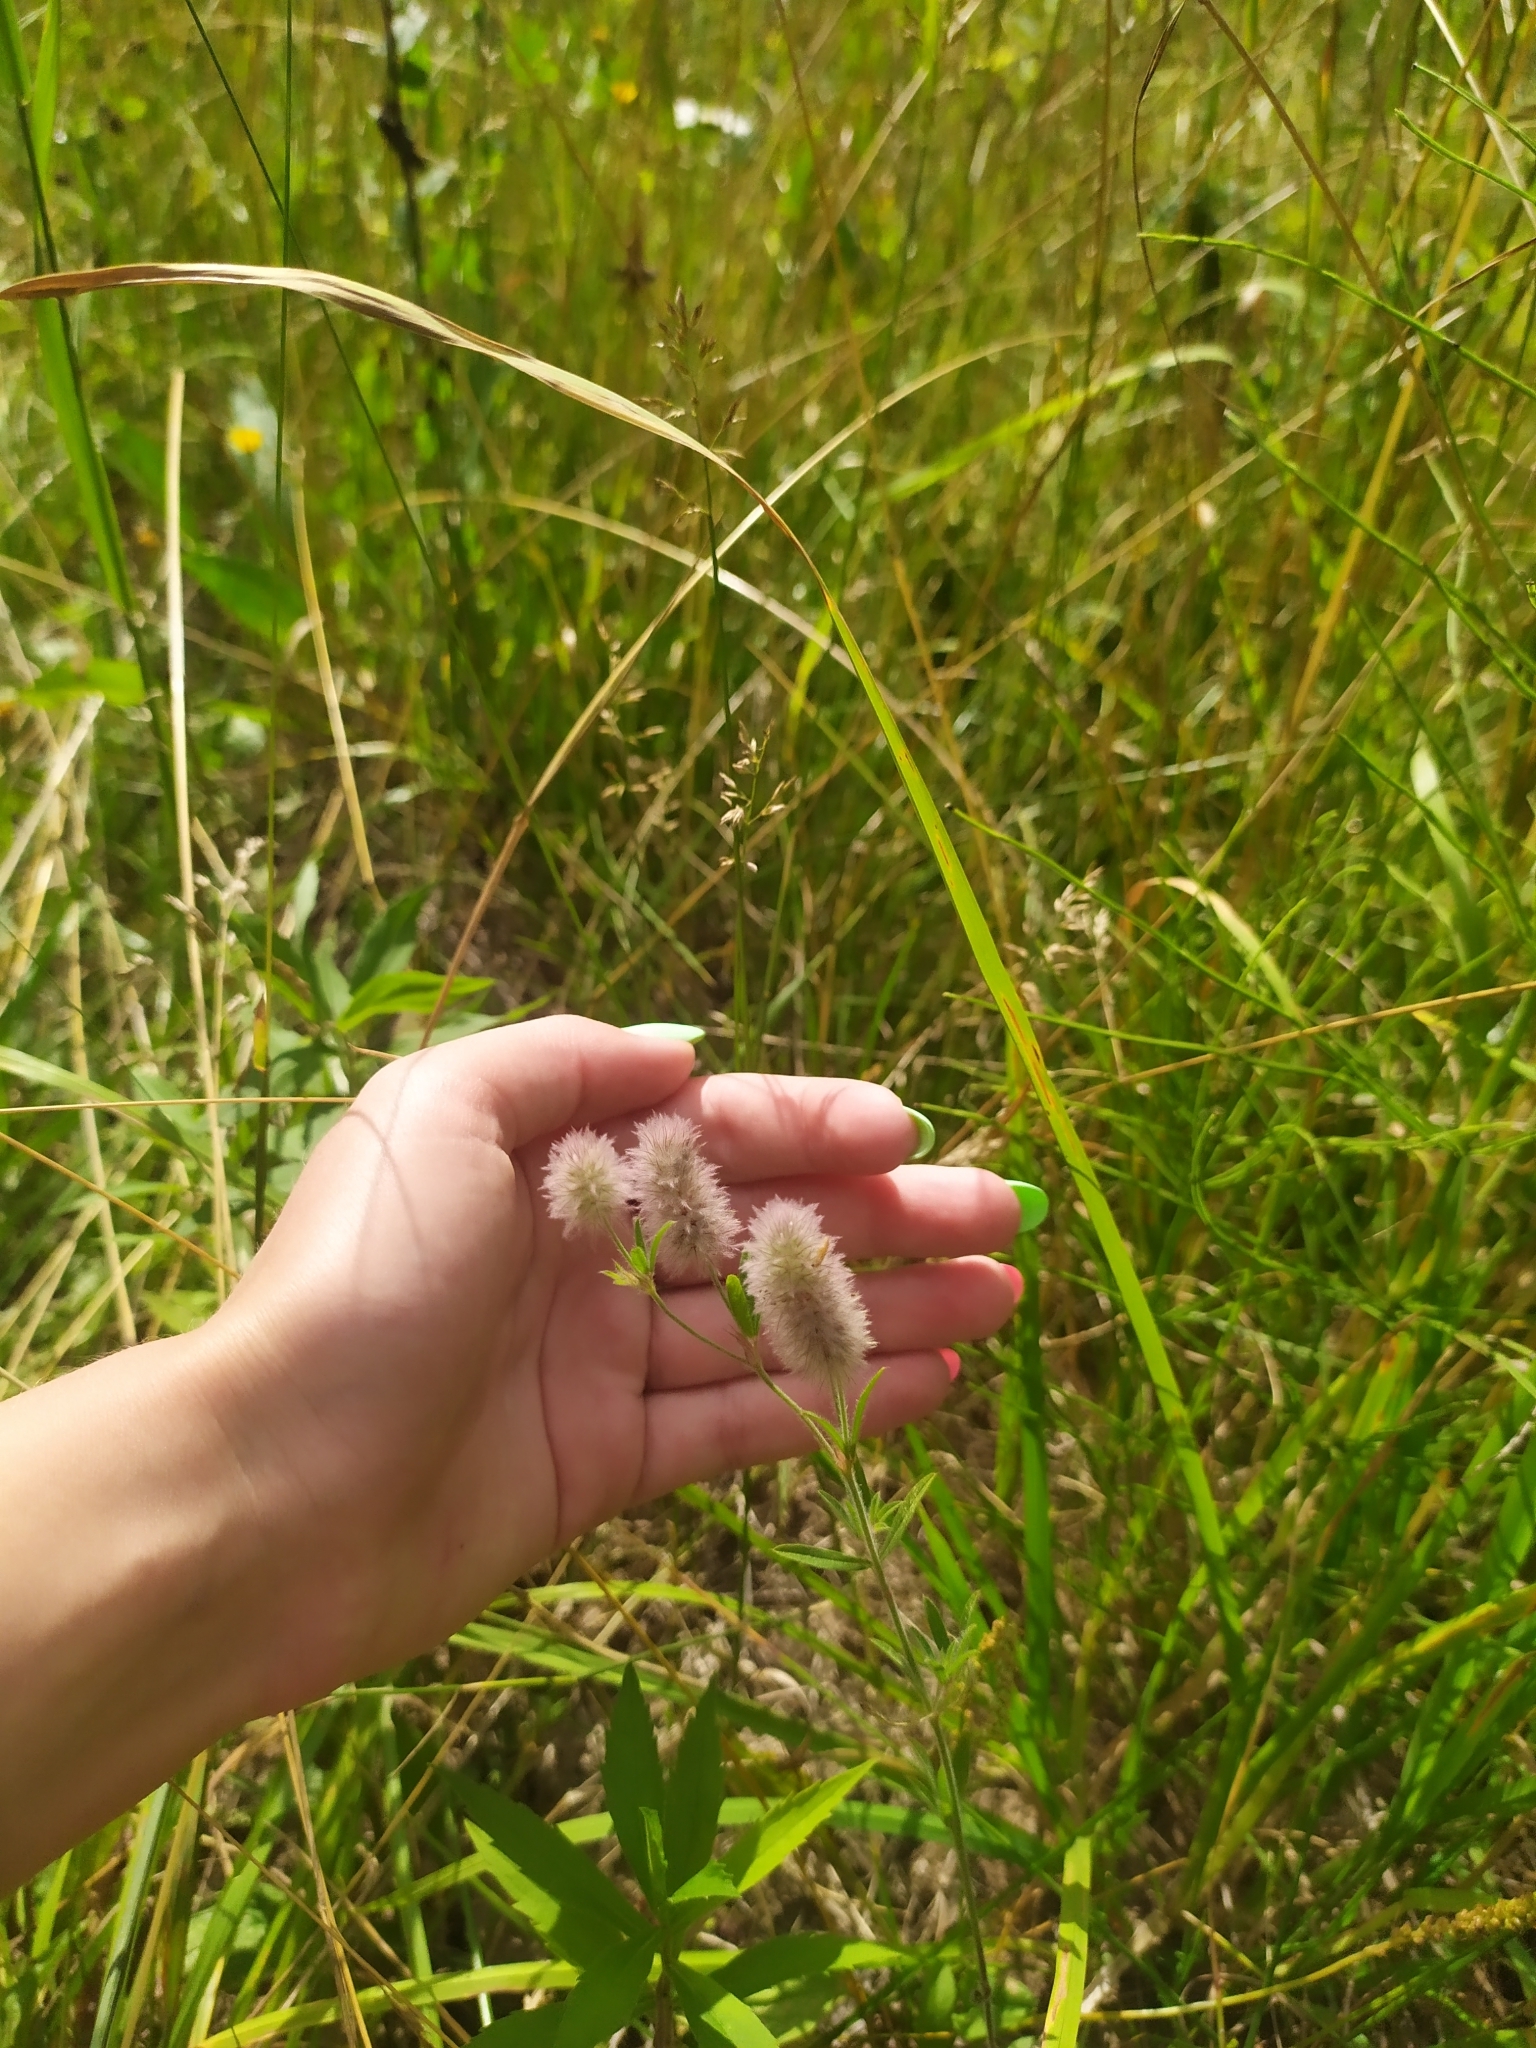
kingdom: Plantae
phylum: Tracheophyta
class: Magnoliopsida
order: Fabales
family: Fabaceae
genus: Trifolium
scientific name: Trifolium arvense
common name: Hare's-foot clover
